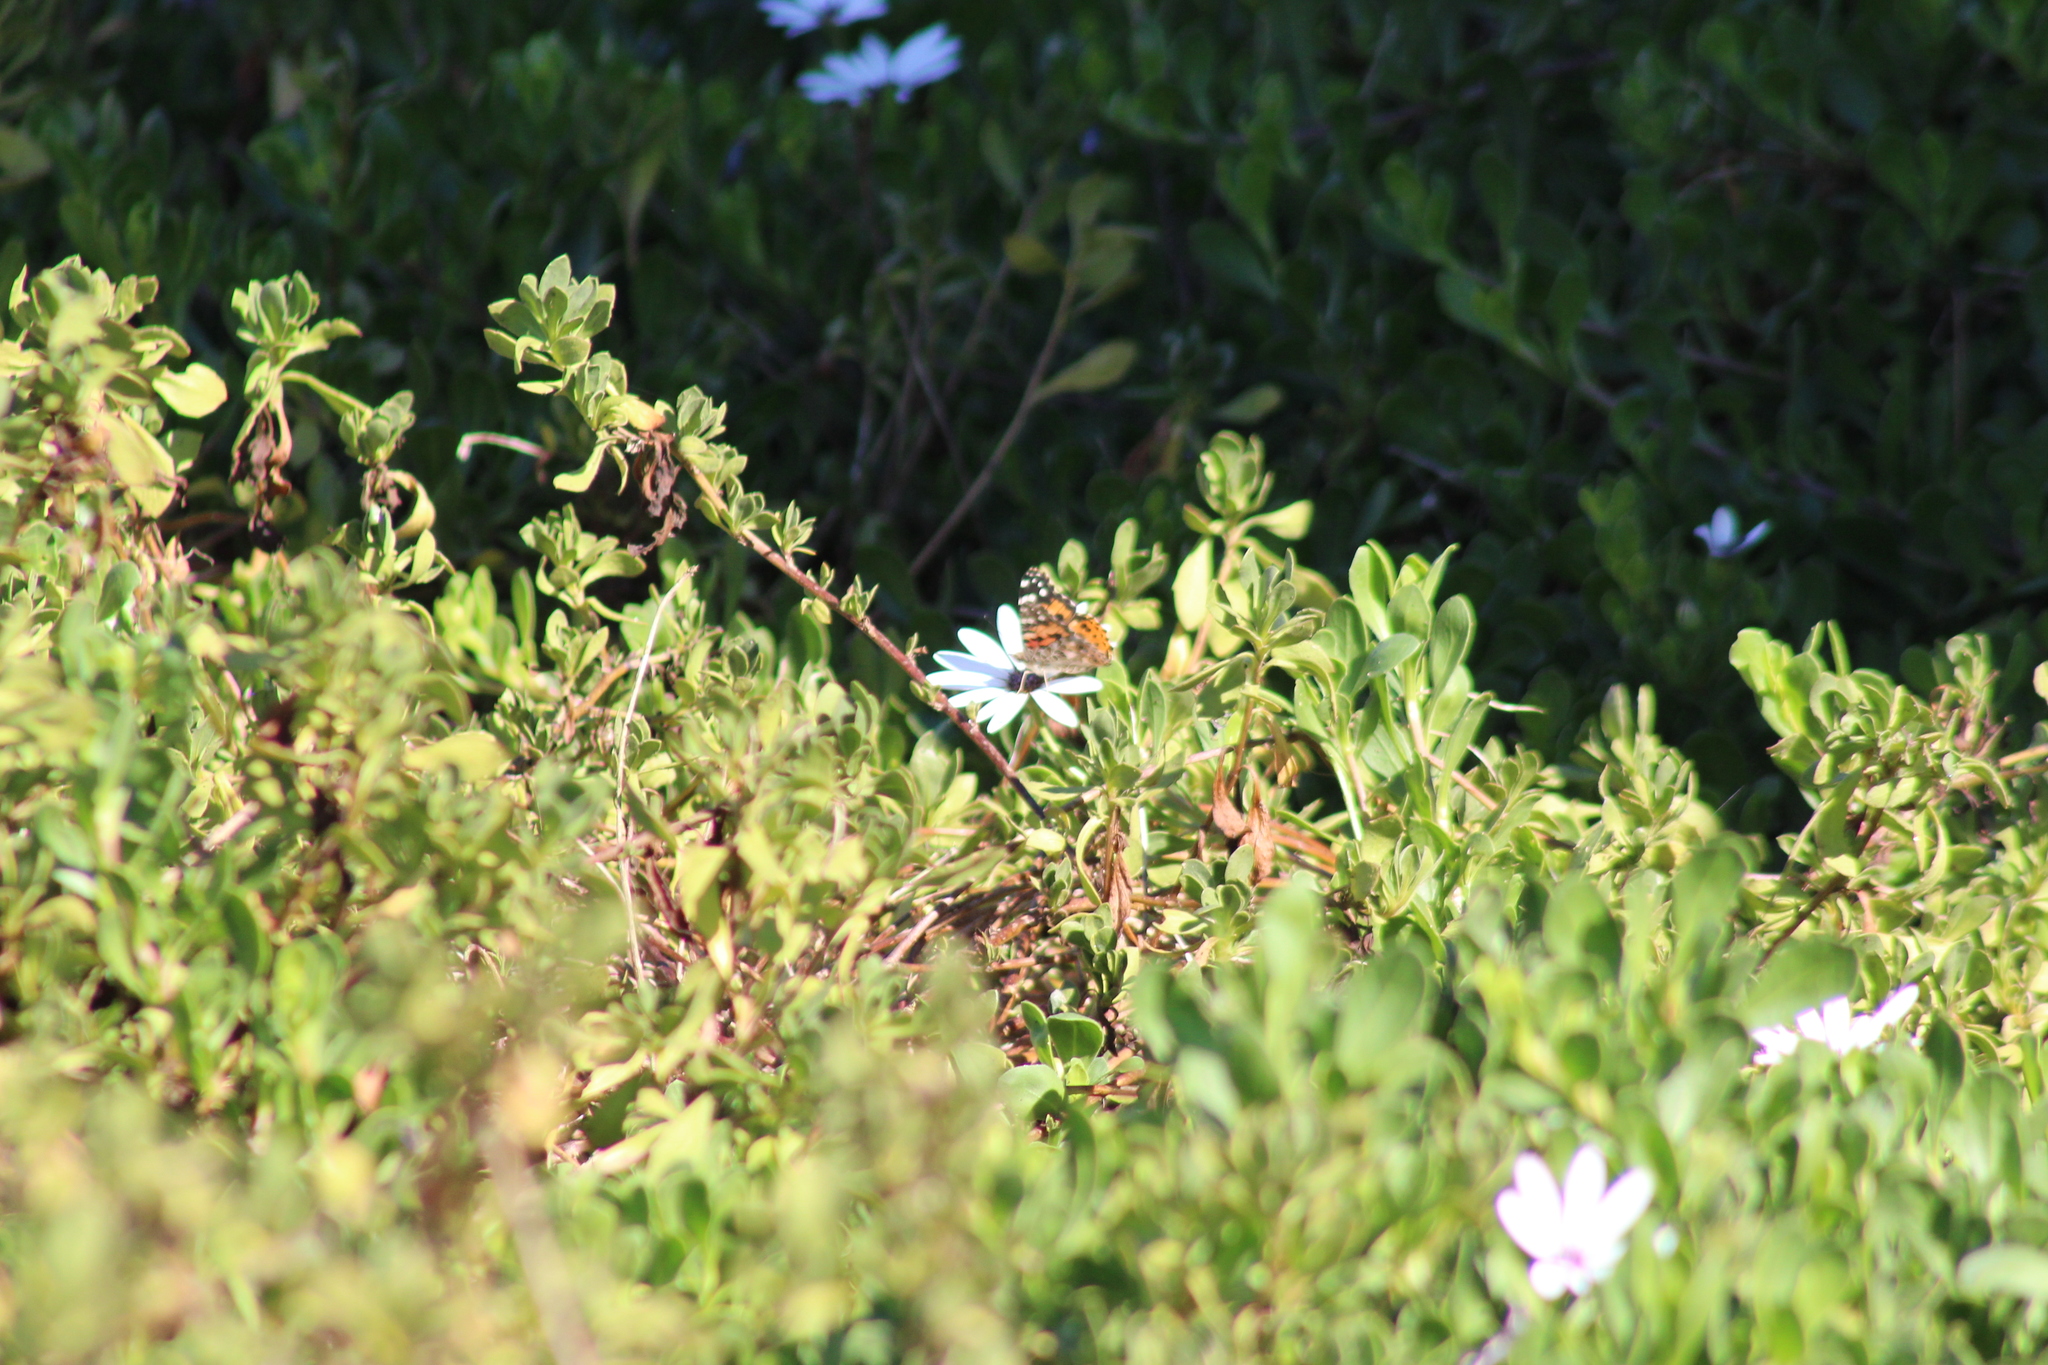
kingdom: Animalia
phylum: Arthropoda
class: Insecta
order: Lepidoptera
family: Nymphalidae
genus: Vanessa
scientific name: Vanessa cardui
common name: Painted lady
